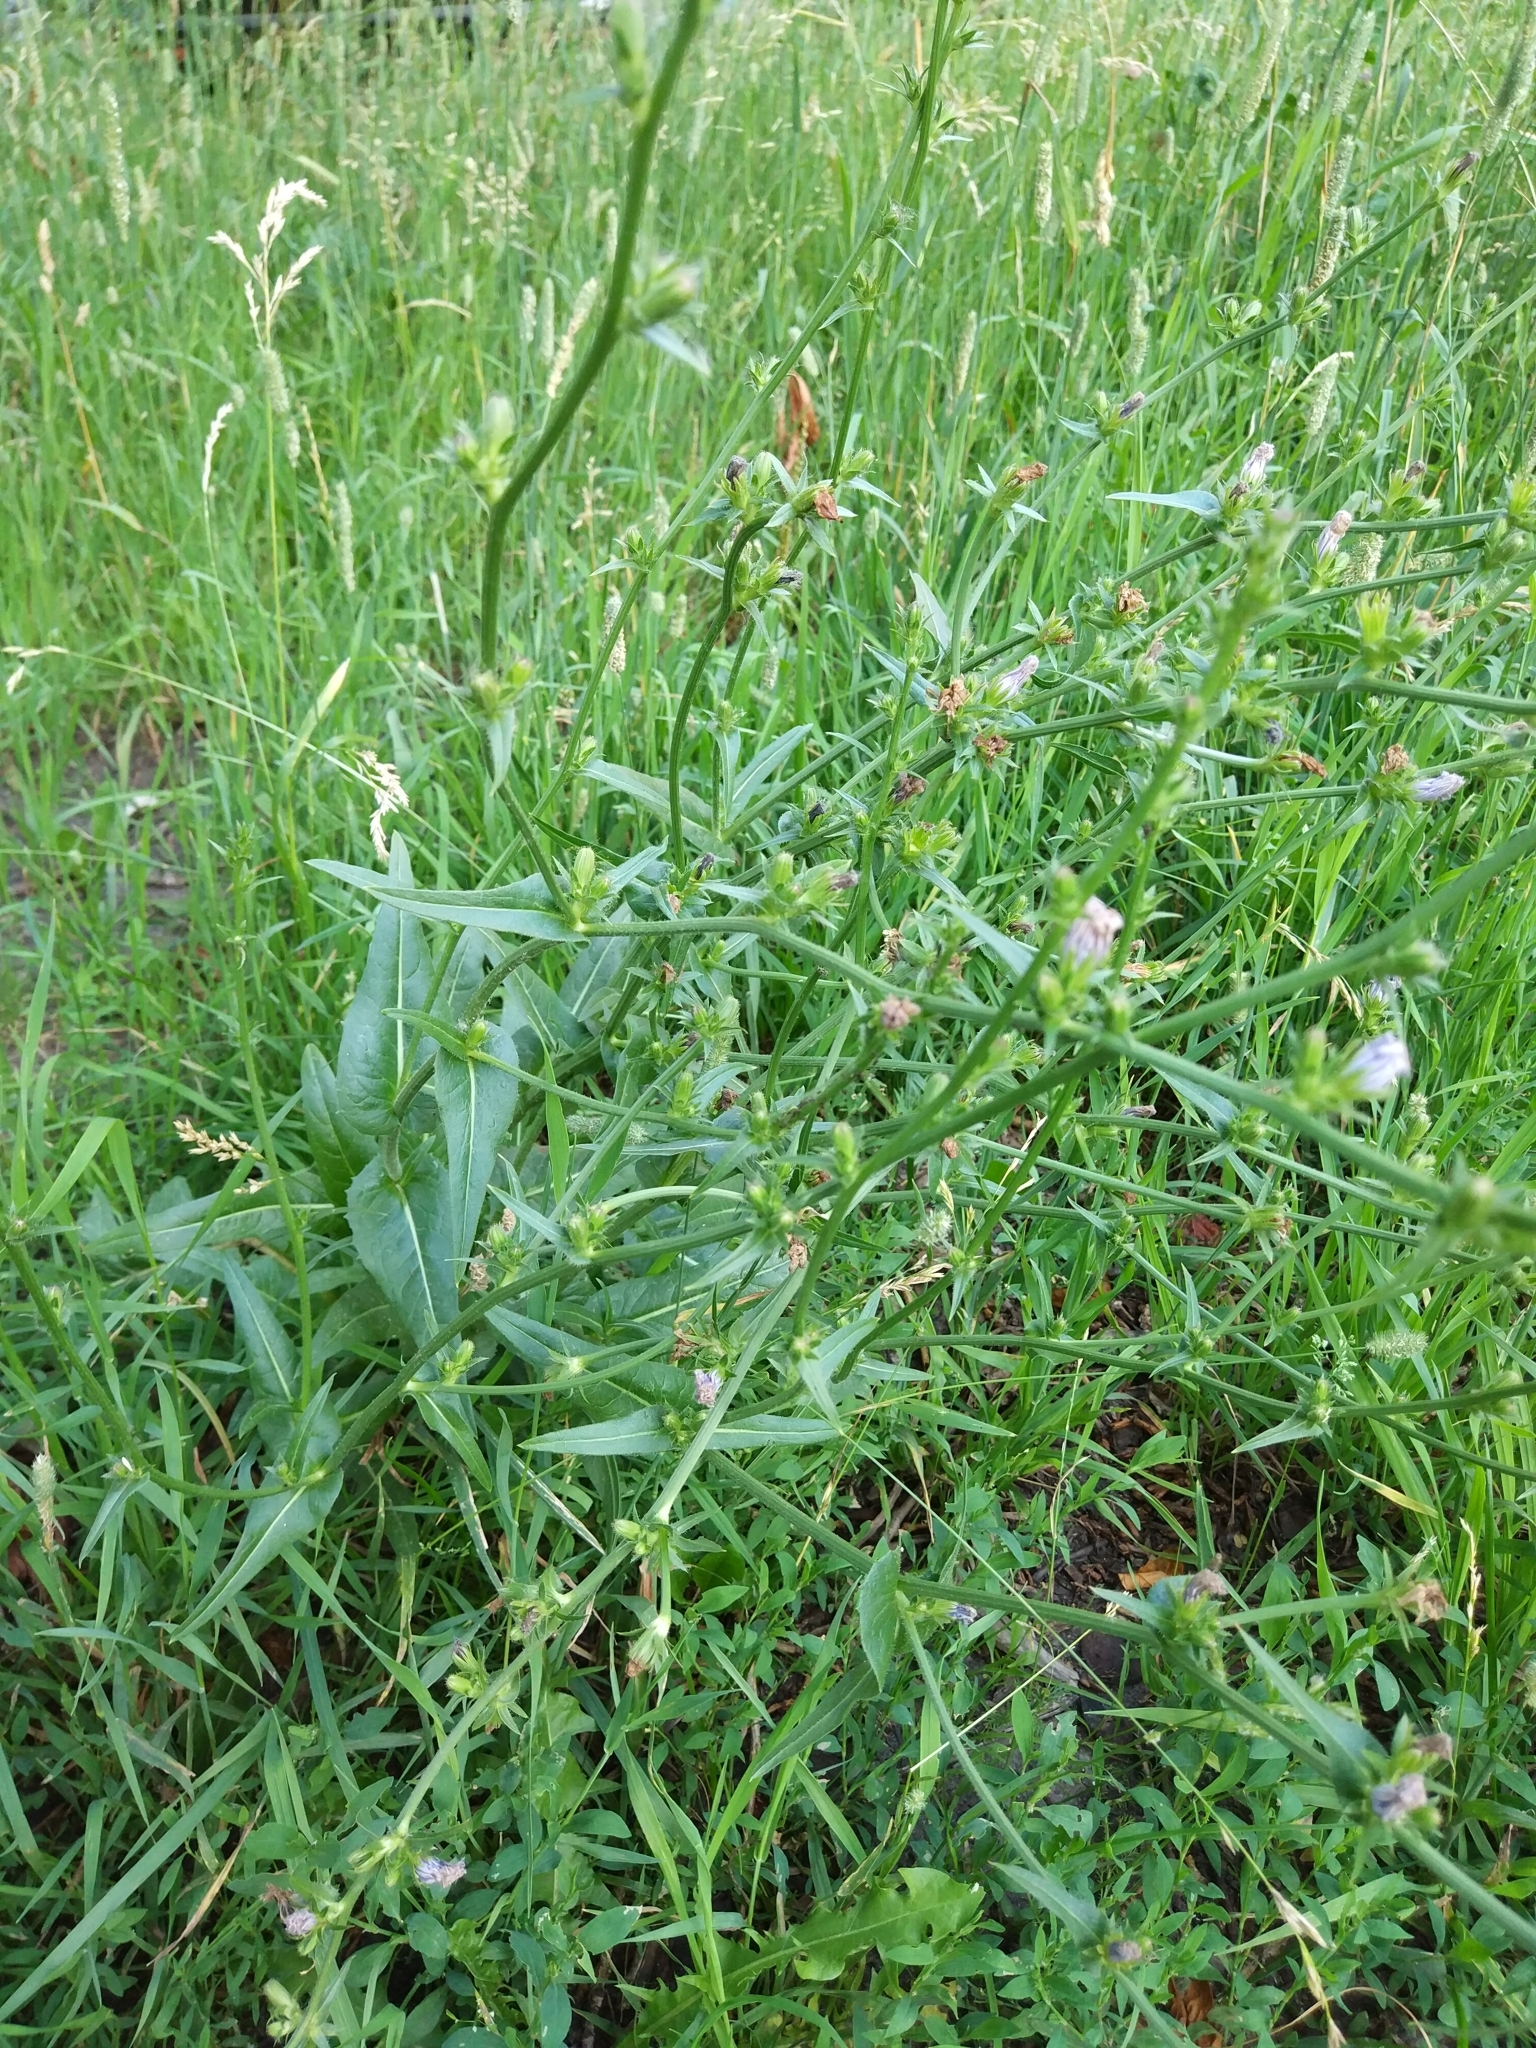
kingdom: Plantae
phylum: Tracheophyta
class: Magnoliopsida
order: Asterales
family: Asteraceae
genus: Cichorium
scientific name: Cichorium intybus
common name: Chicory
